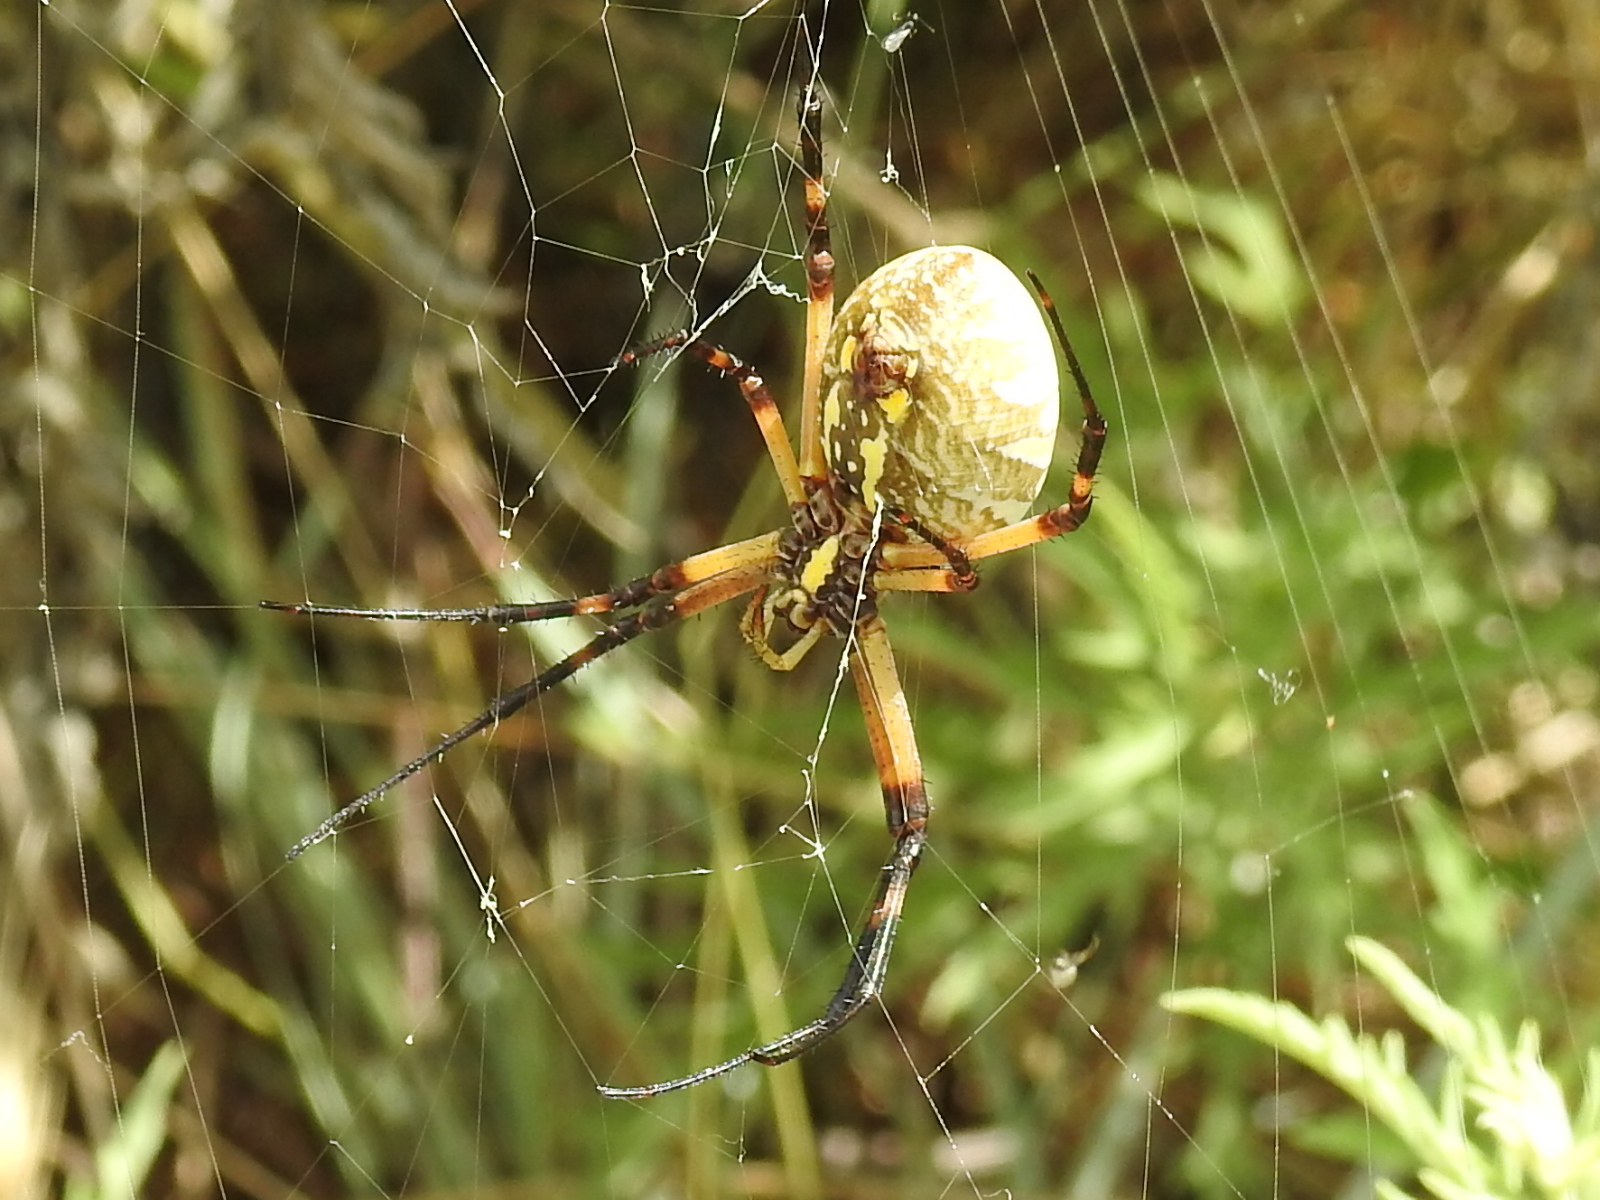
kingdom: Animalia
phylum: Arthropoda
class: Arachnida
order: Araneae
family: Araneidae
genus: Argiope
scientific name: Argiope aurantia
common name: Orb weavers
